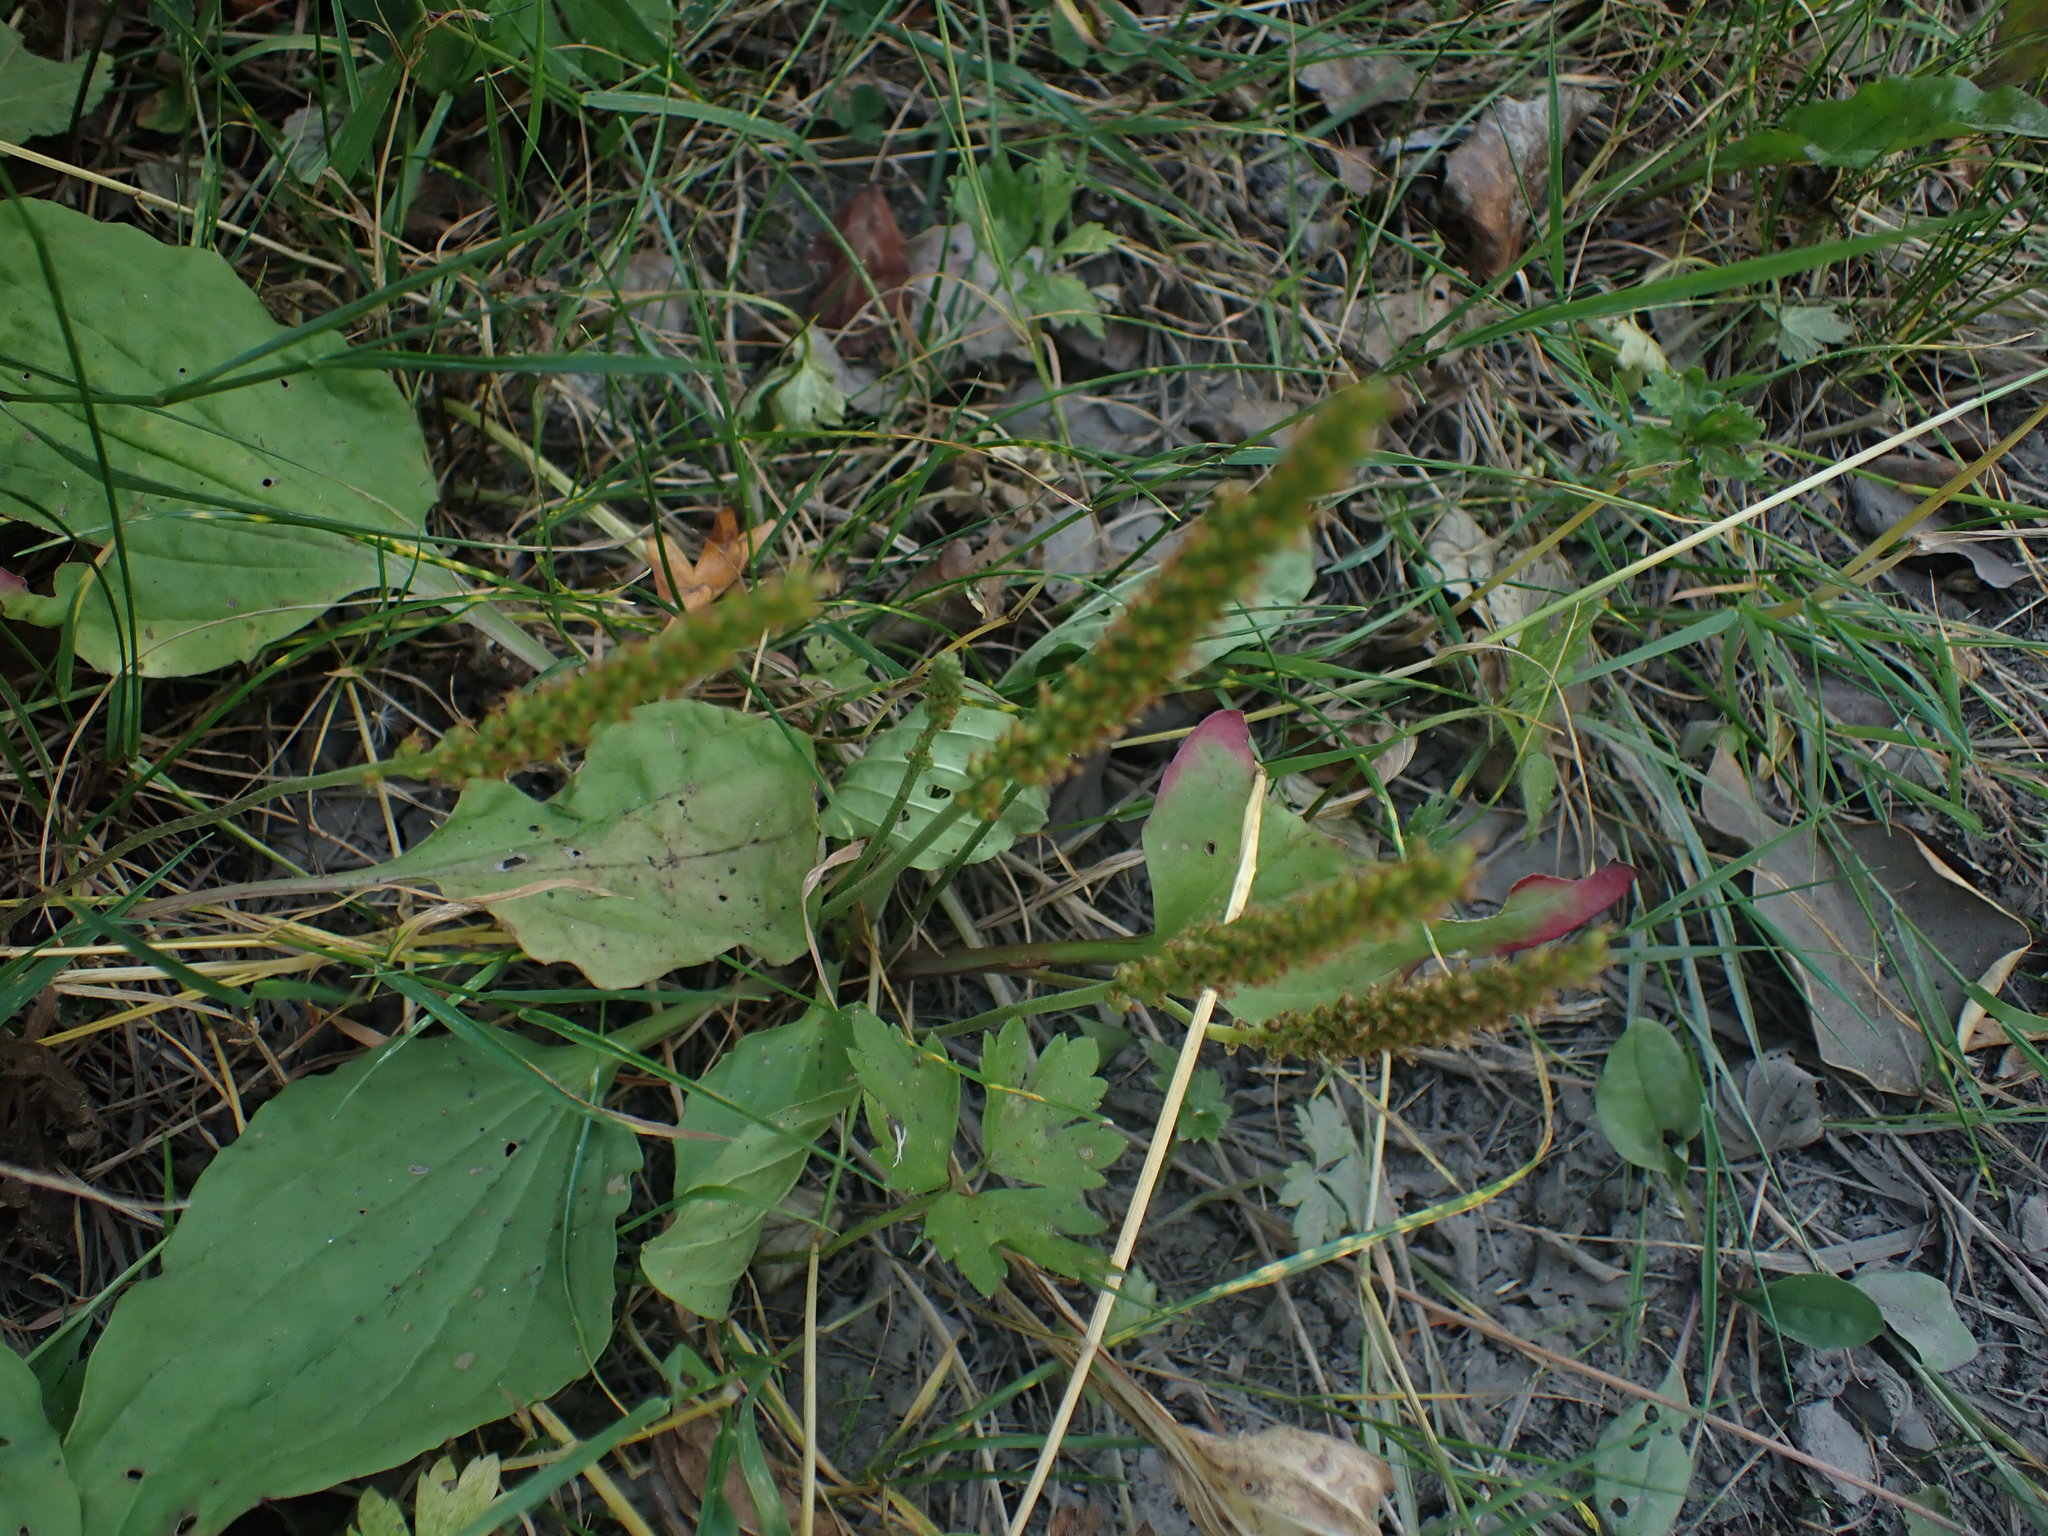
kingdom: Plantae
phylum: Tracheophyta
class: Magnoliopsida
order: Lamiales
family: Plantaginaceae
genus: Plantago
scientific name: Plantago major
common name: Common plantain
